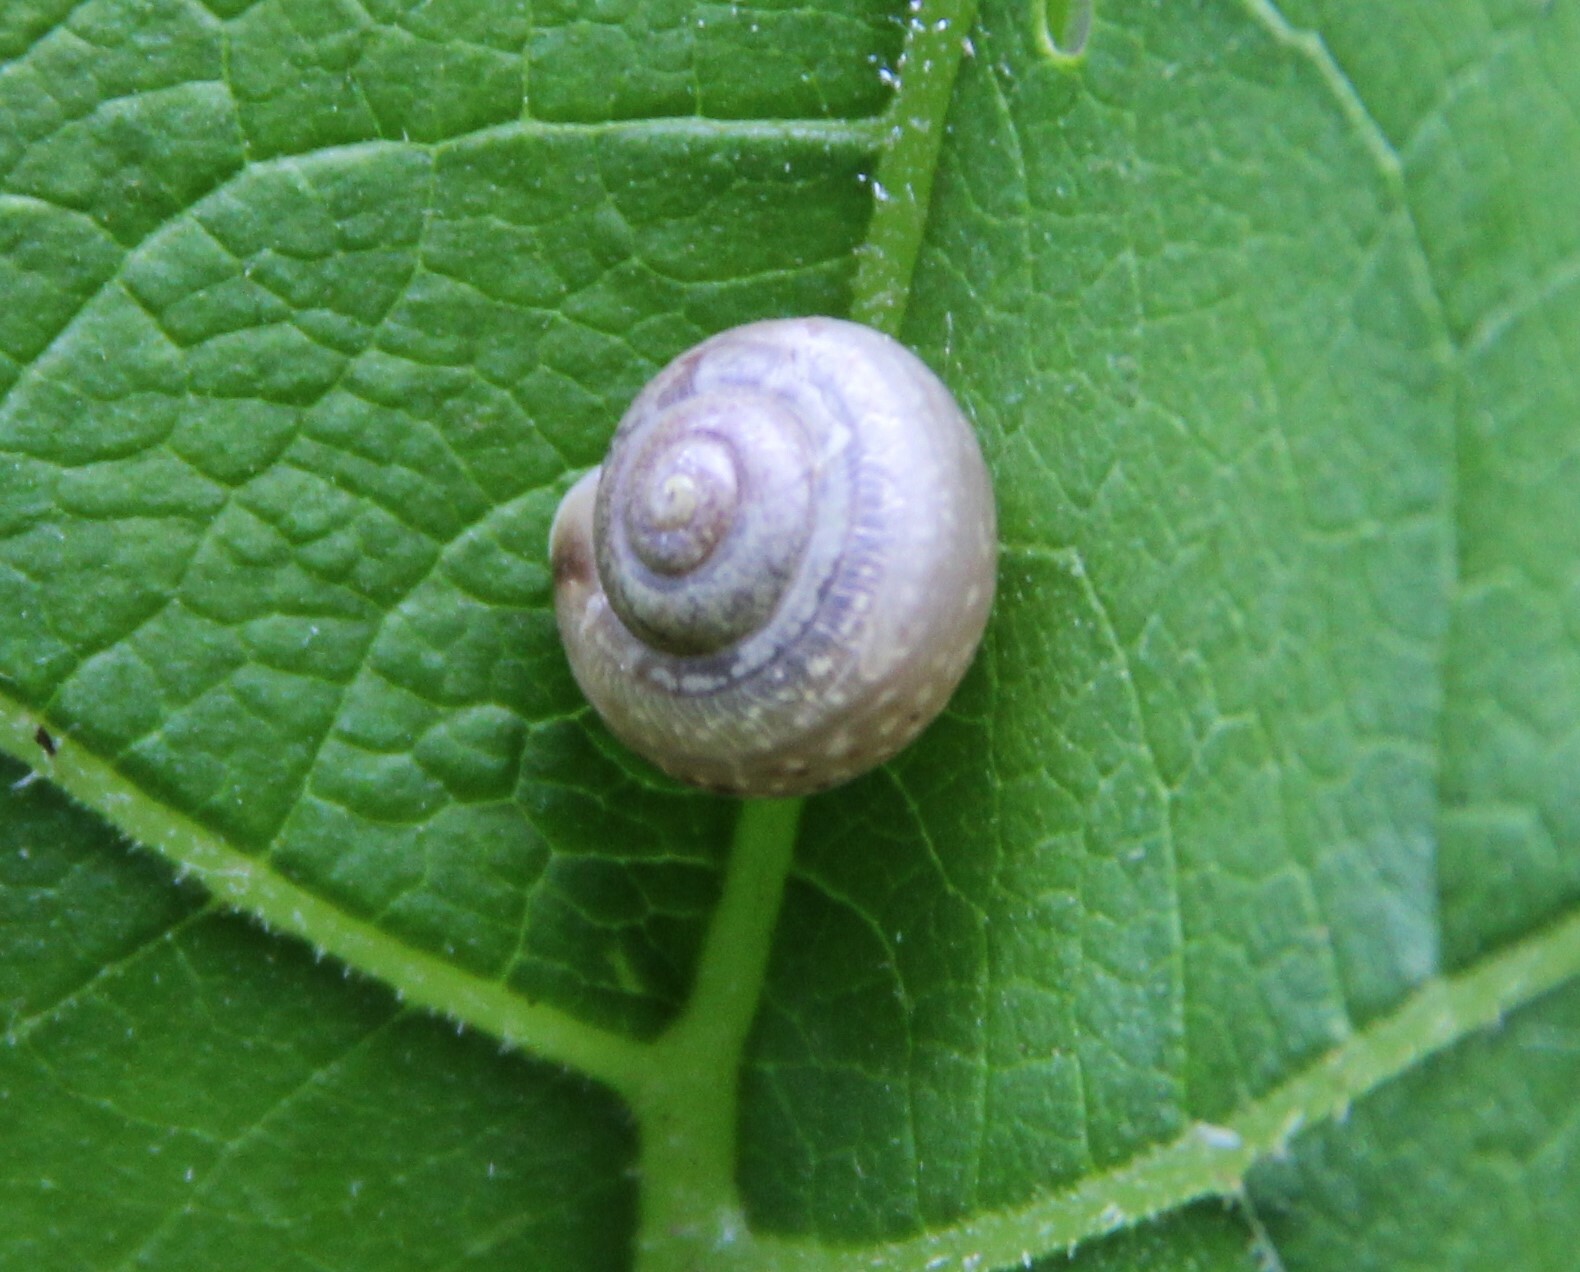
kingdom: Animalia
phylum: Mollusca
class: Gastropoda
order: Stylommatophora
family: Camaenidae
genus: Fruticicola
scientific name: Fruticicola fruticum
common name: Bush snail
